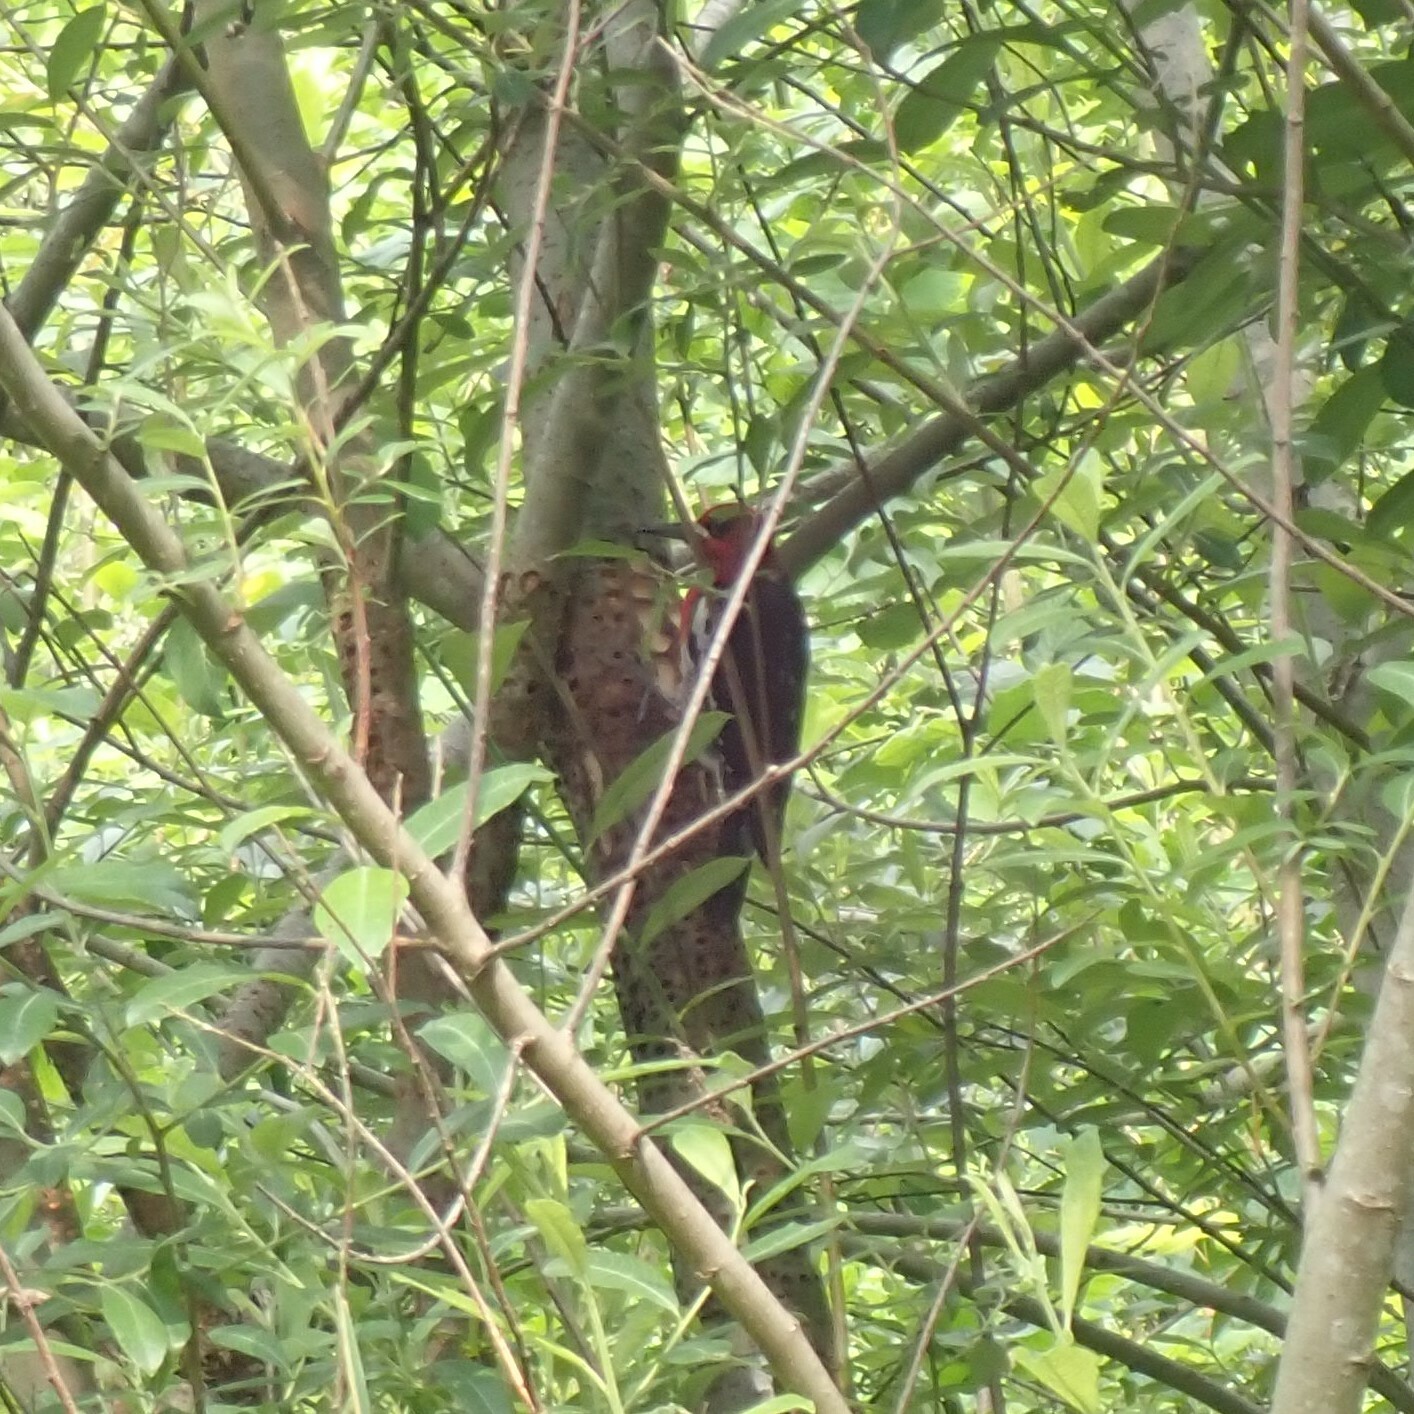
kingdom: Animalia
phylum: Chordata
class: Aves
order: Piciformes
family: Picidae
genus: Sphyrapicus
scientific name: Sphyrapicus ruber
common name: Red-breasted sapsucker
